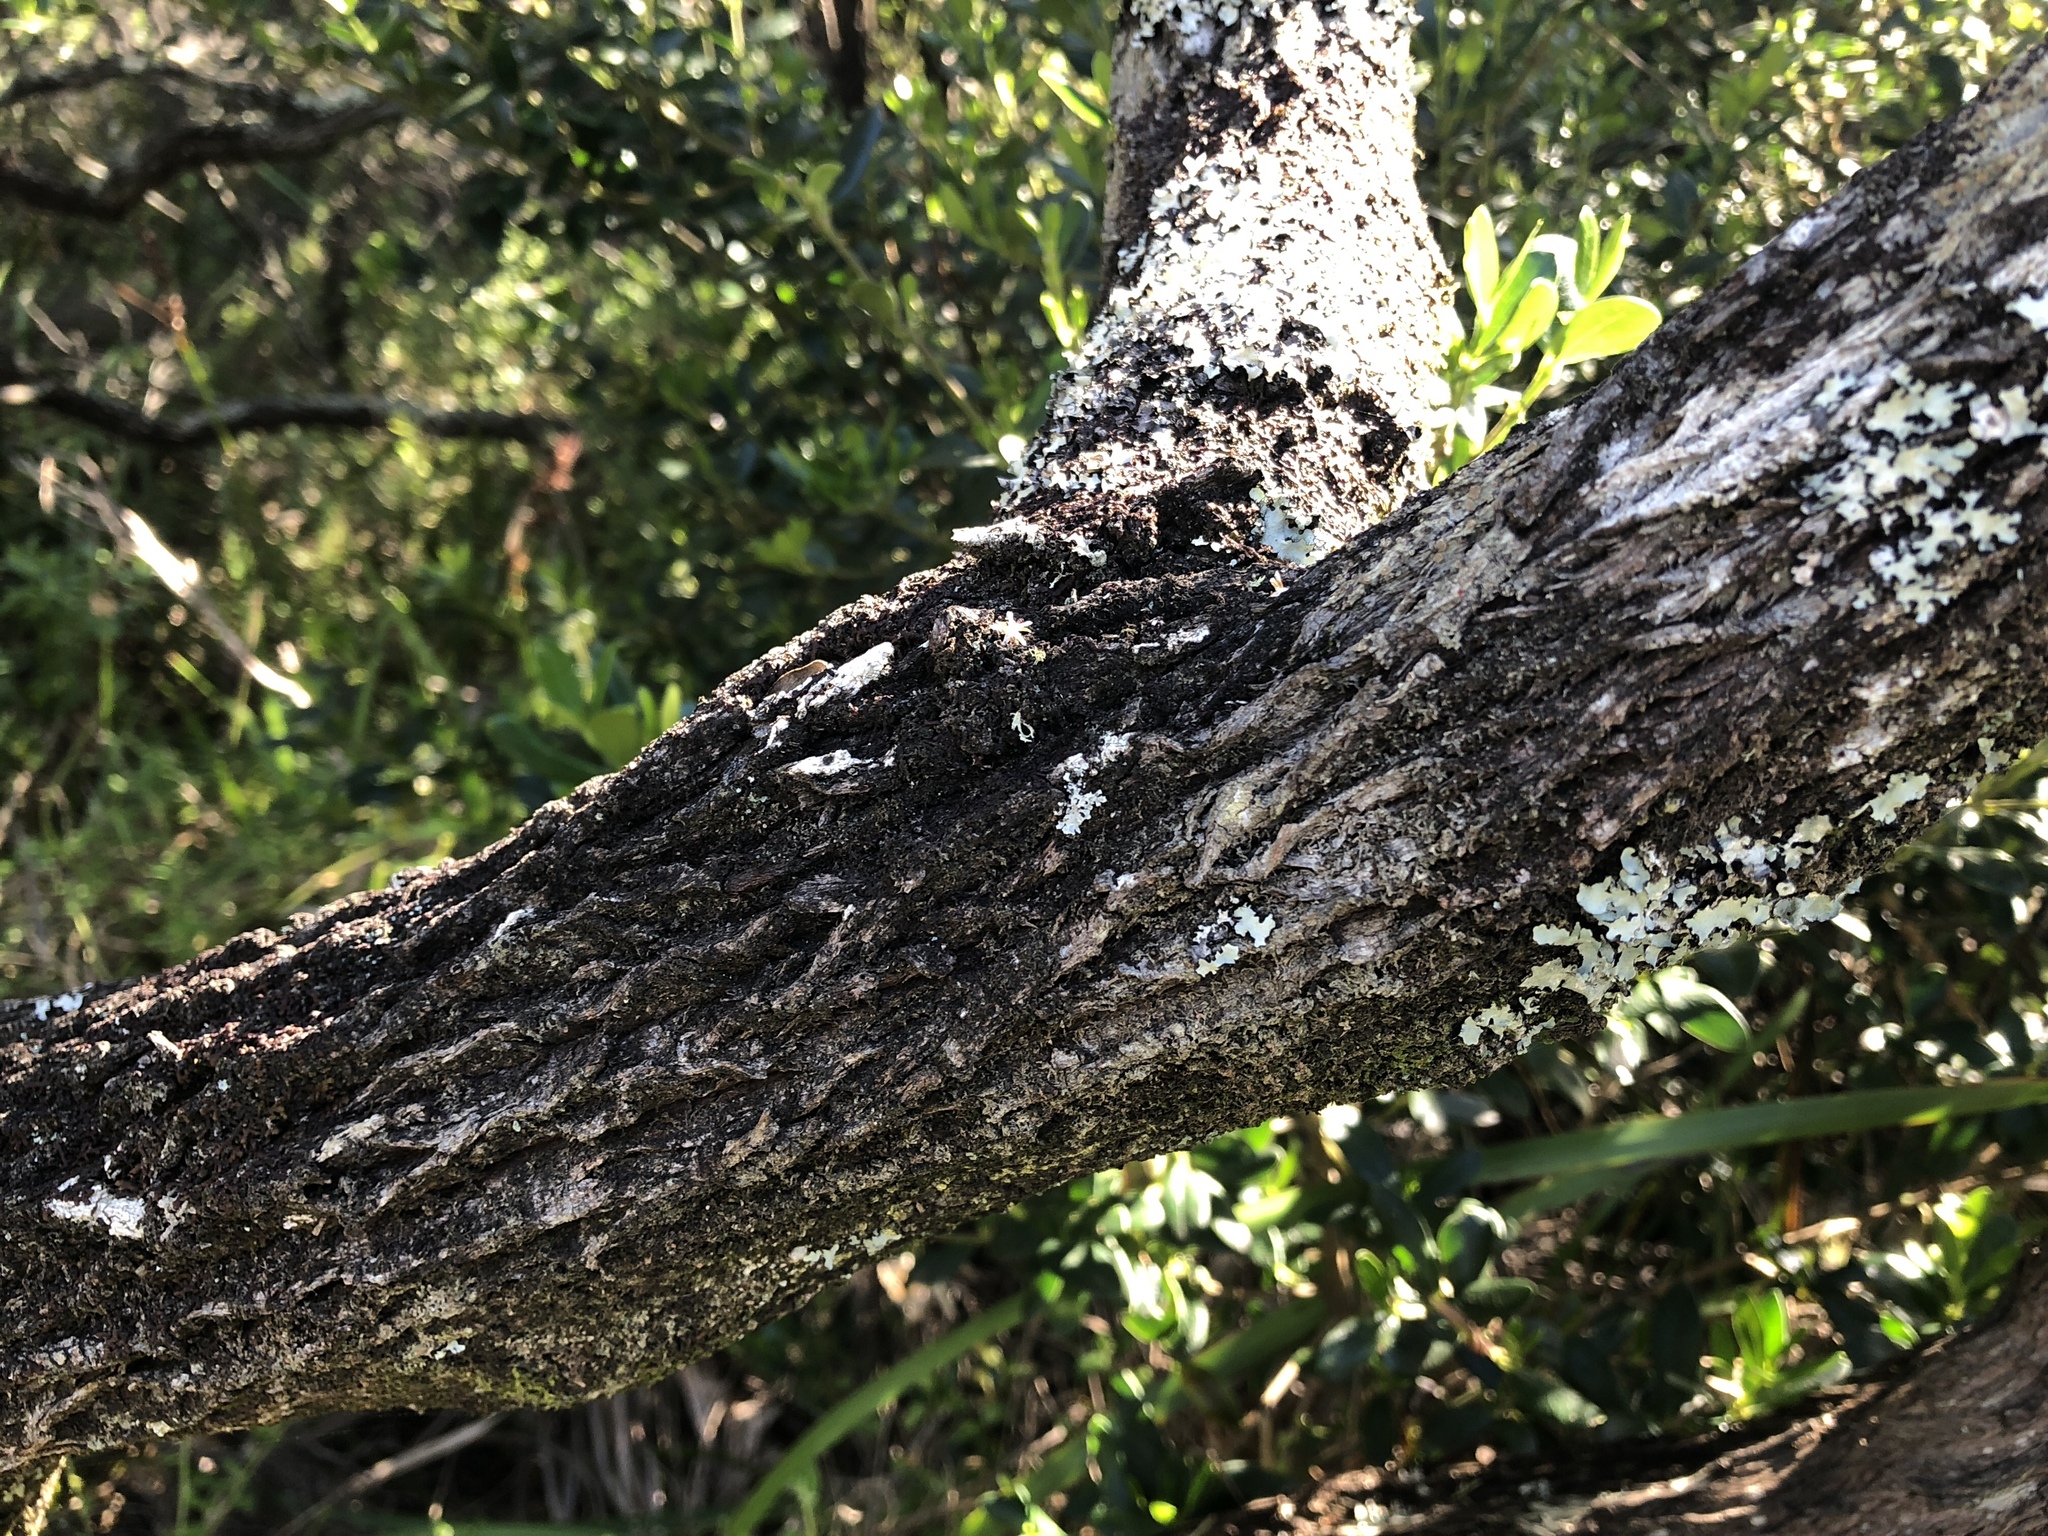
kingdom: Plantae
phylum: Tracheophyta
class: Magnoliopsida
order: Ericales
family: Ericaceae
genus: Leptecophylla
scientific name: Leptecophylla parvifolia
